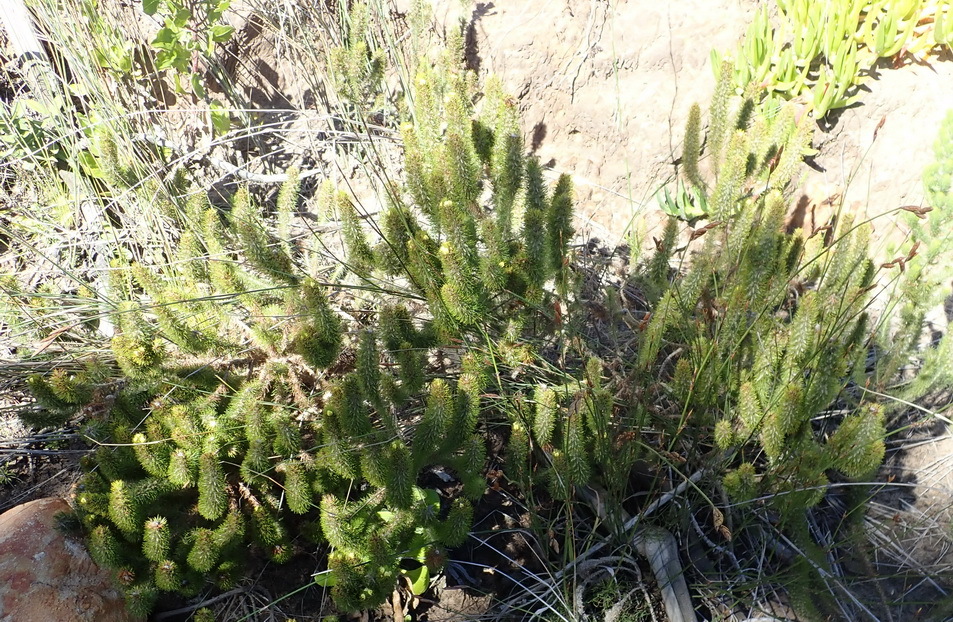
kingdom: Plantae
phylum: Tracheophyta
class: Magnoliopsida
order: Fabales
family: Fabaceae
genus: Aspalathus
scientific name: Aspalathus alopecurus
